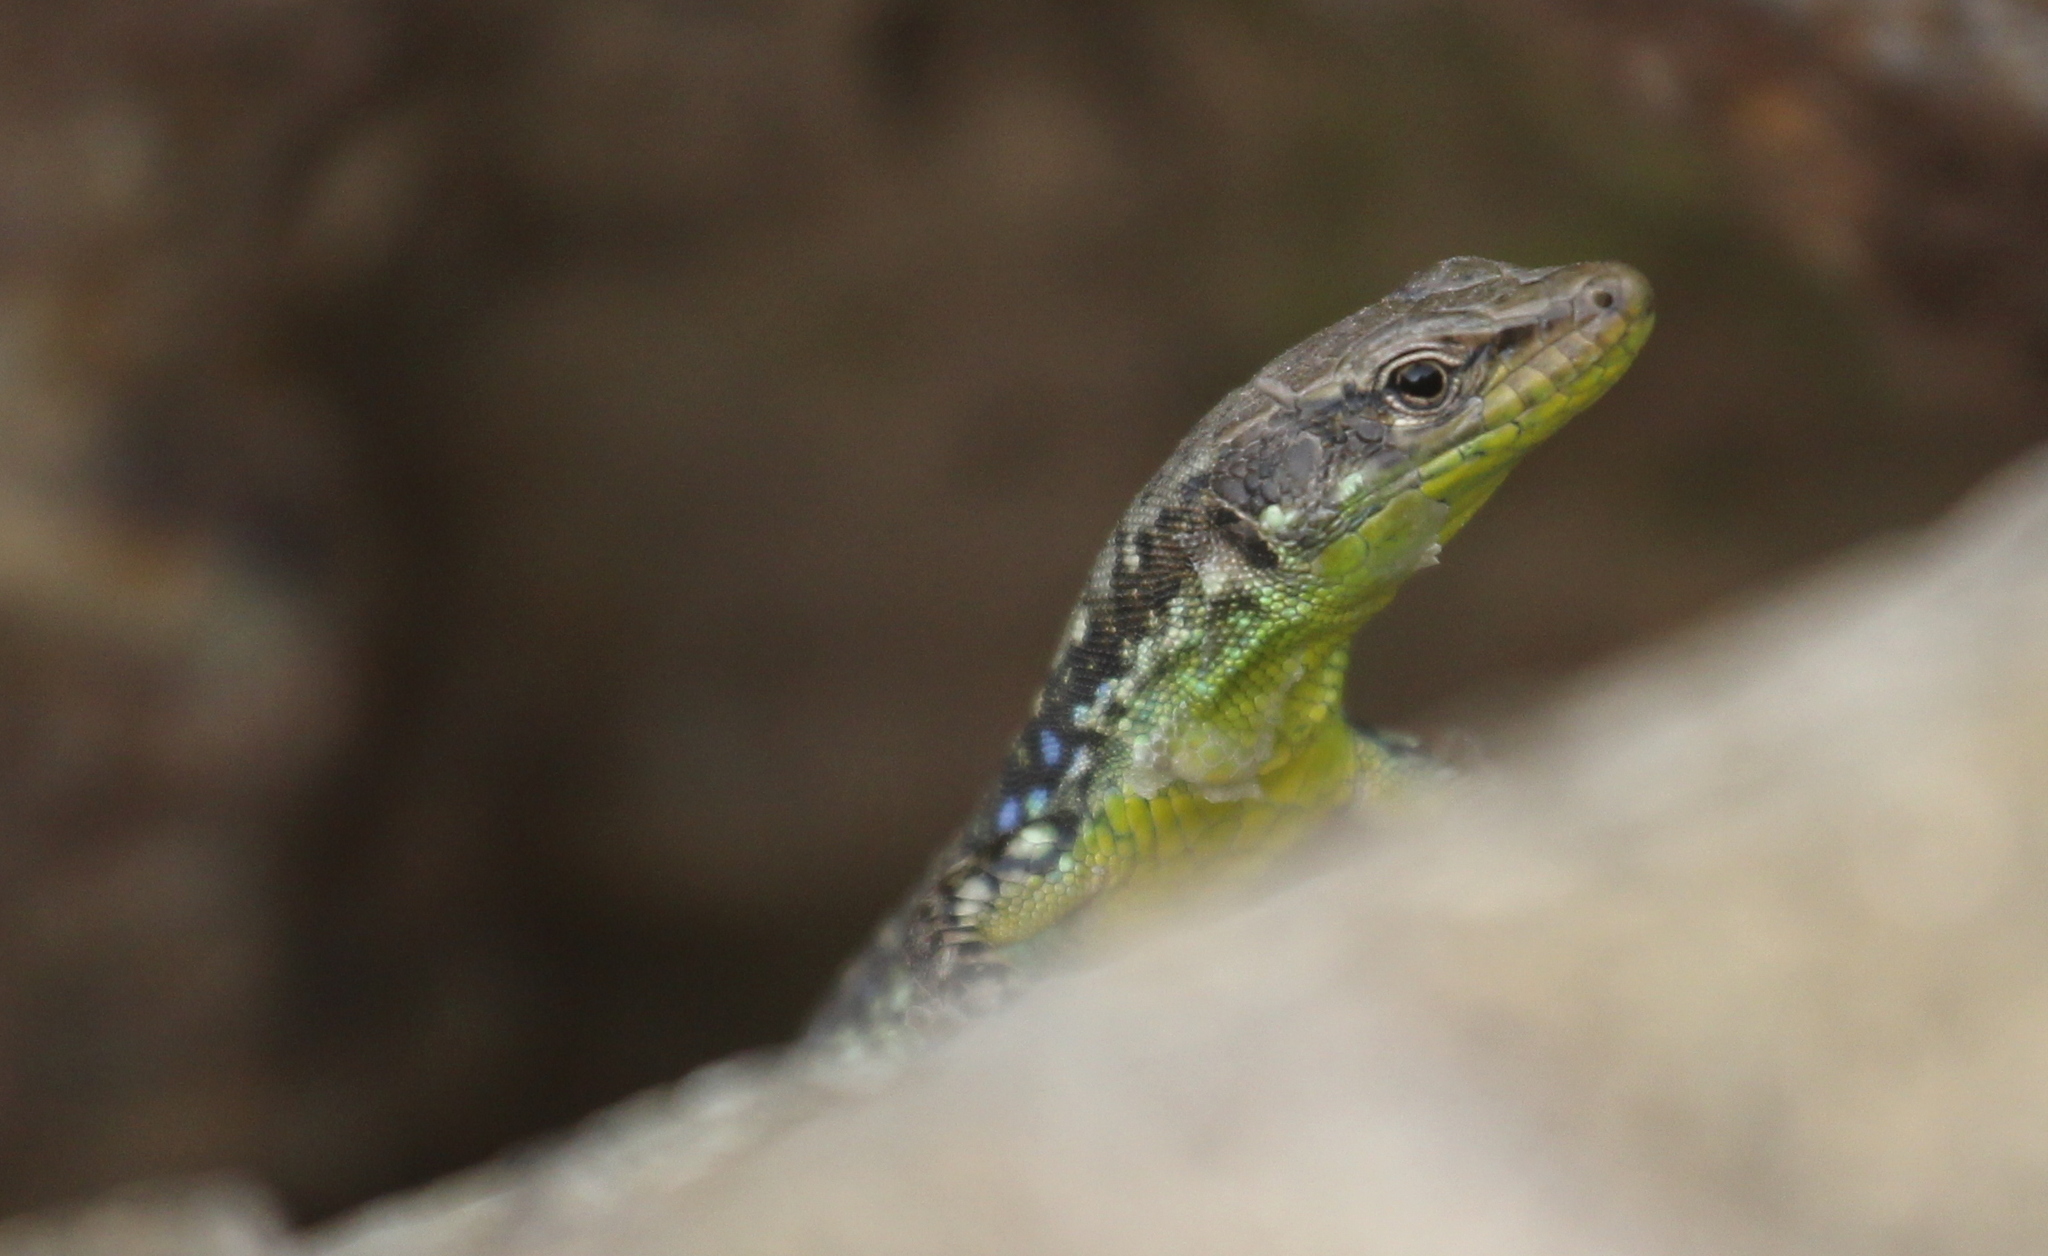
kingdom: Animalia
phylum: Chordata
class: Squamata
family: Lacertidae
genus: Darevskia
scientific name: Darevskia raddei
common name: Radde's lizard
